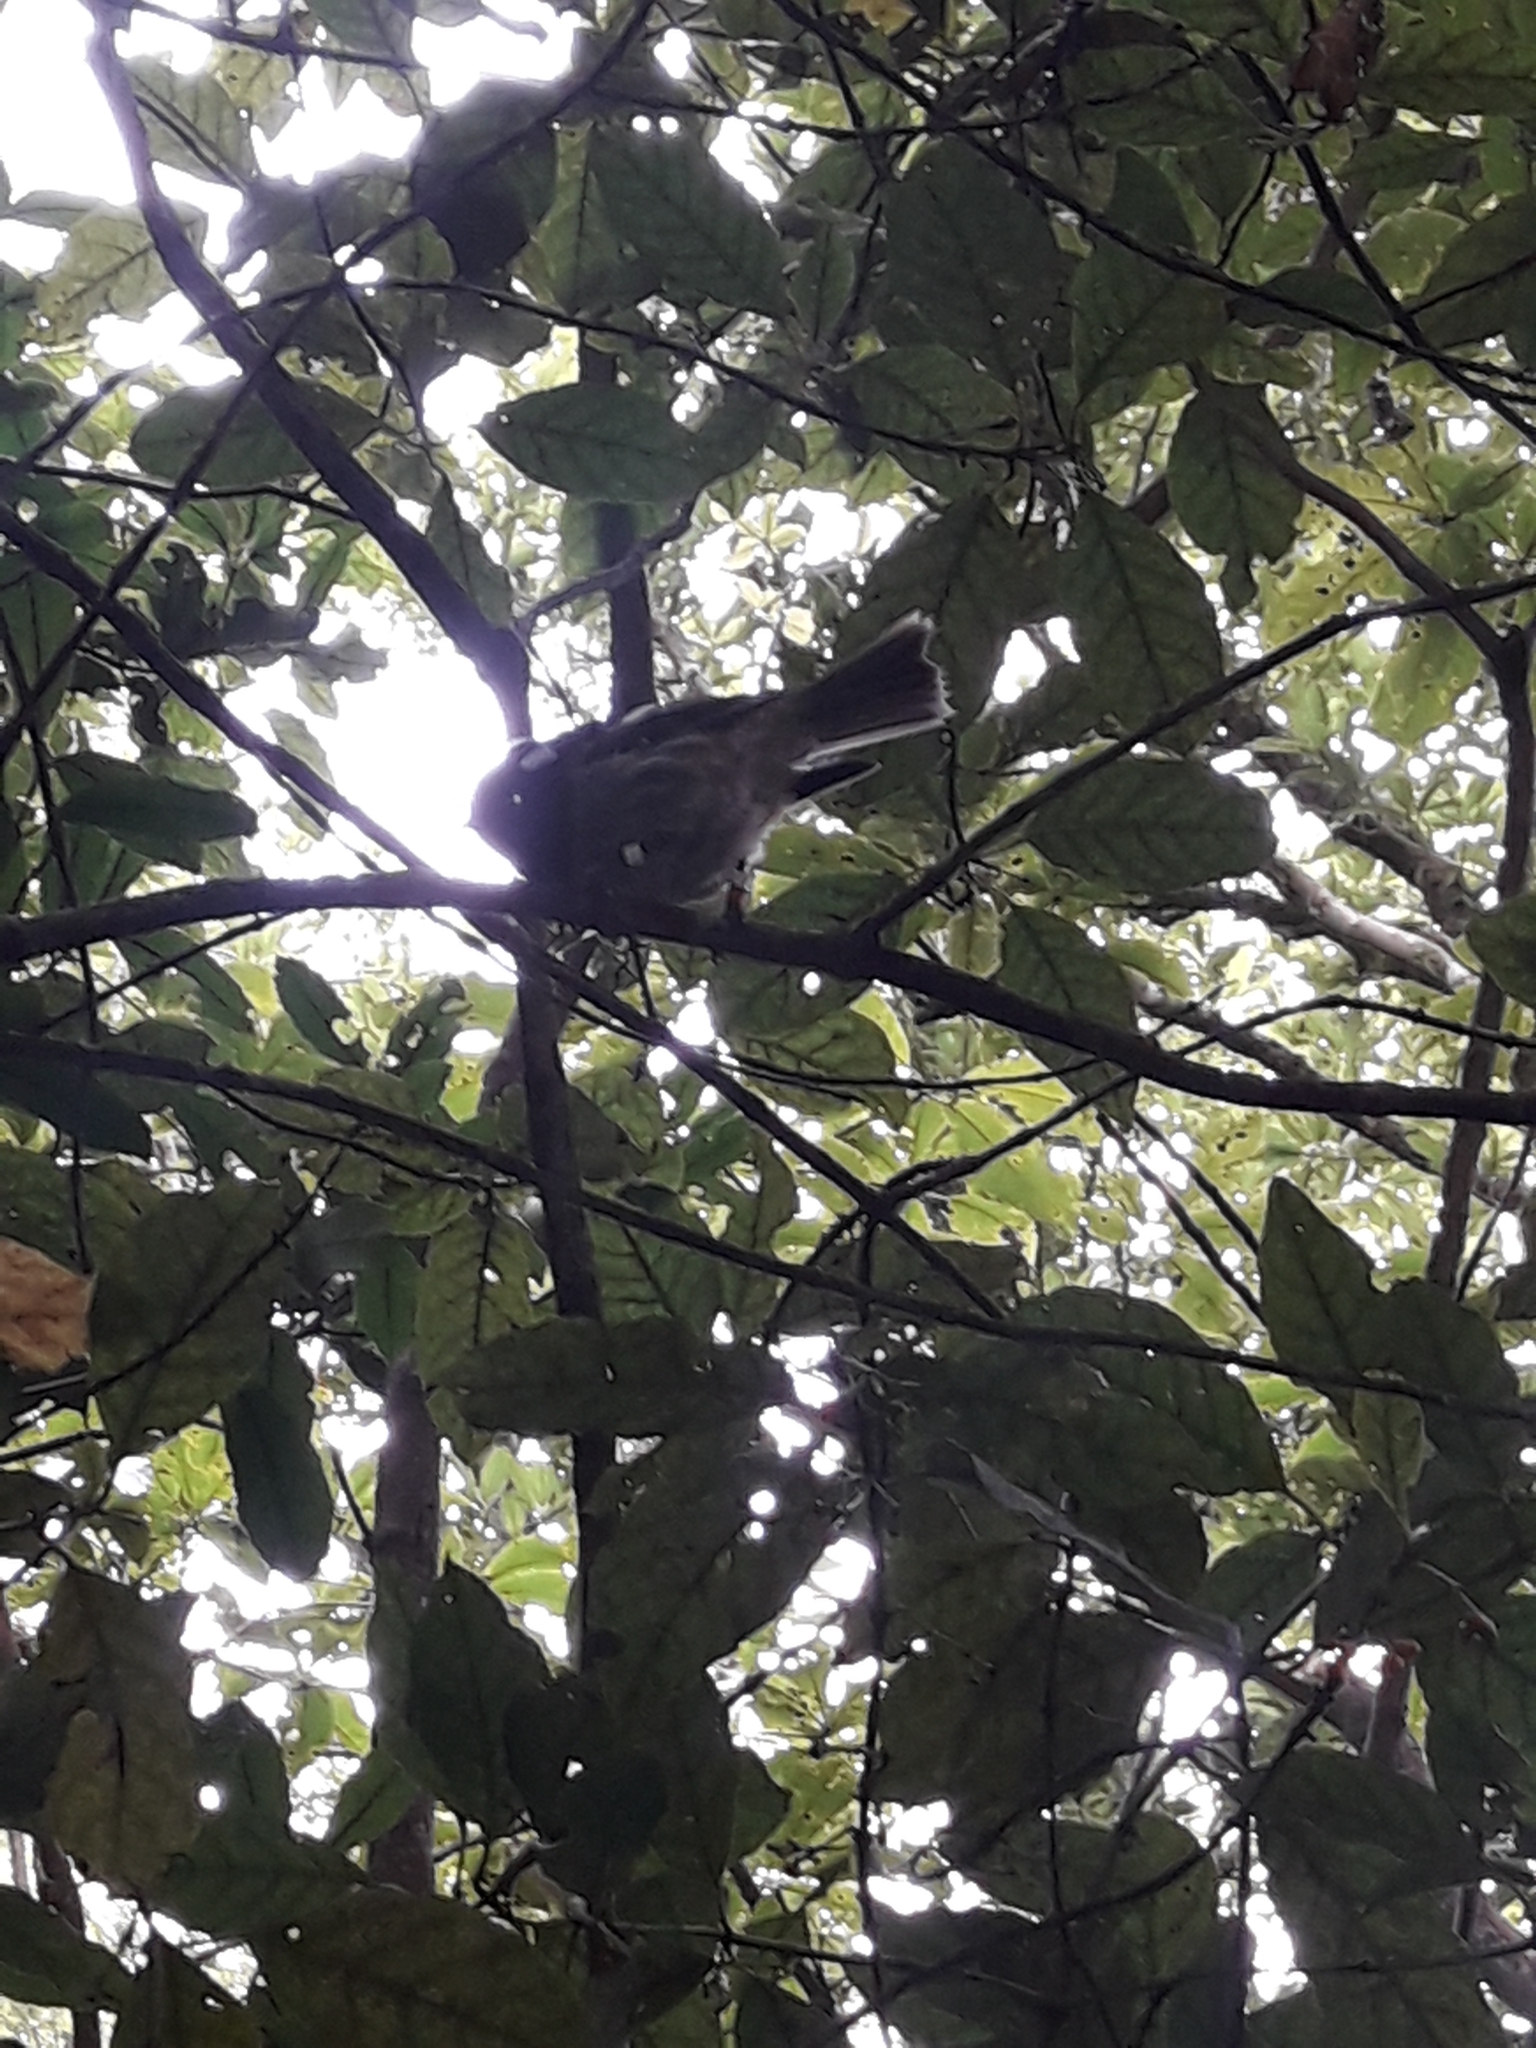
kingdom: Animalia
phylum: Chordata
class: Aves
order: Passeriformes
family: Notiomystidae
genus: Notiomystis
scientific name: Notiomystis cincta
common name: Stitchbird
